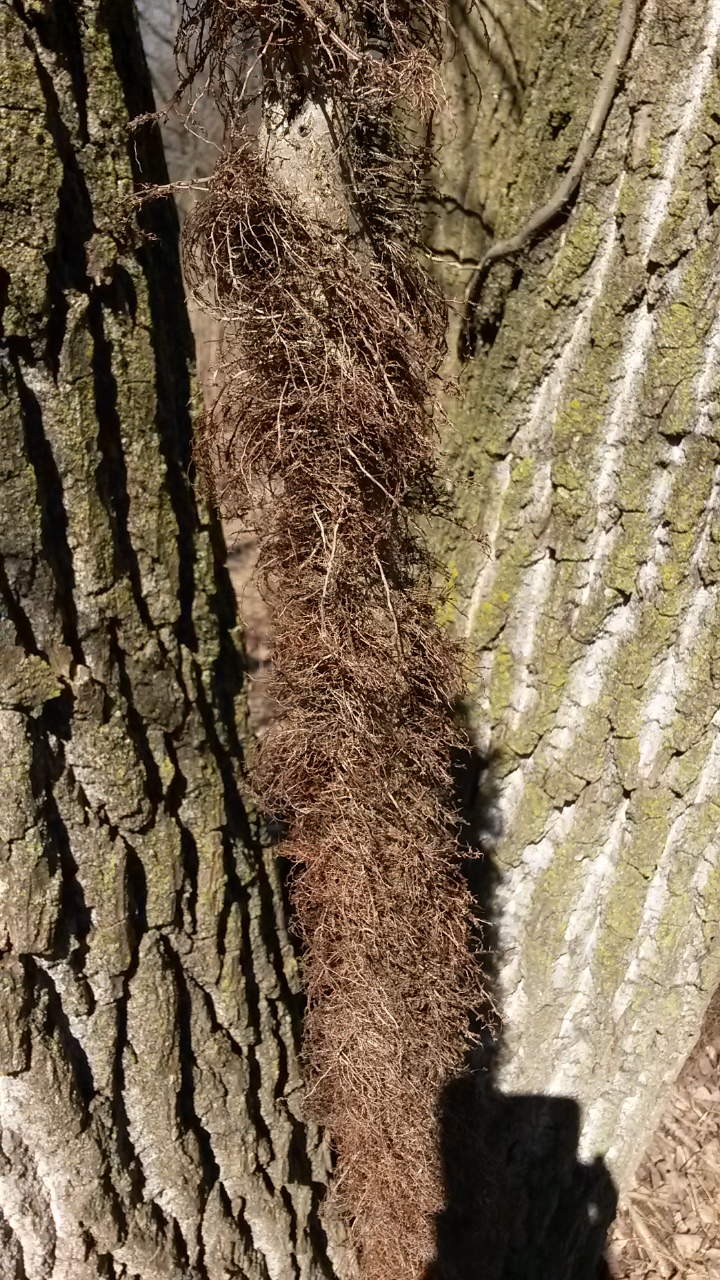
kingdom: Plantae
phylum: Tracheophyta
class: Magnoliopsida
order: Sapindales
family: Anacardiaceae
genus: Toxicodendron
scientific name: Toxicodendron radicans
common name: Poison ivy
